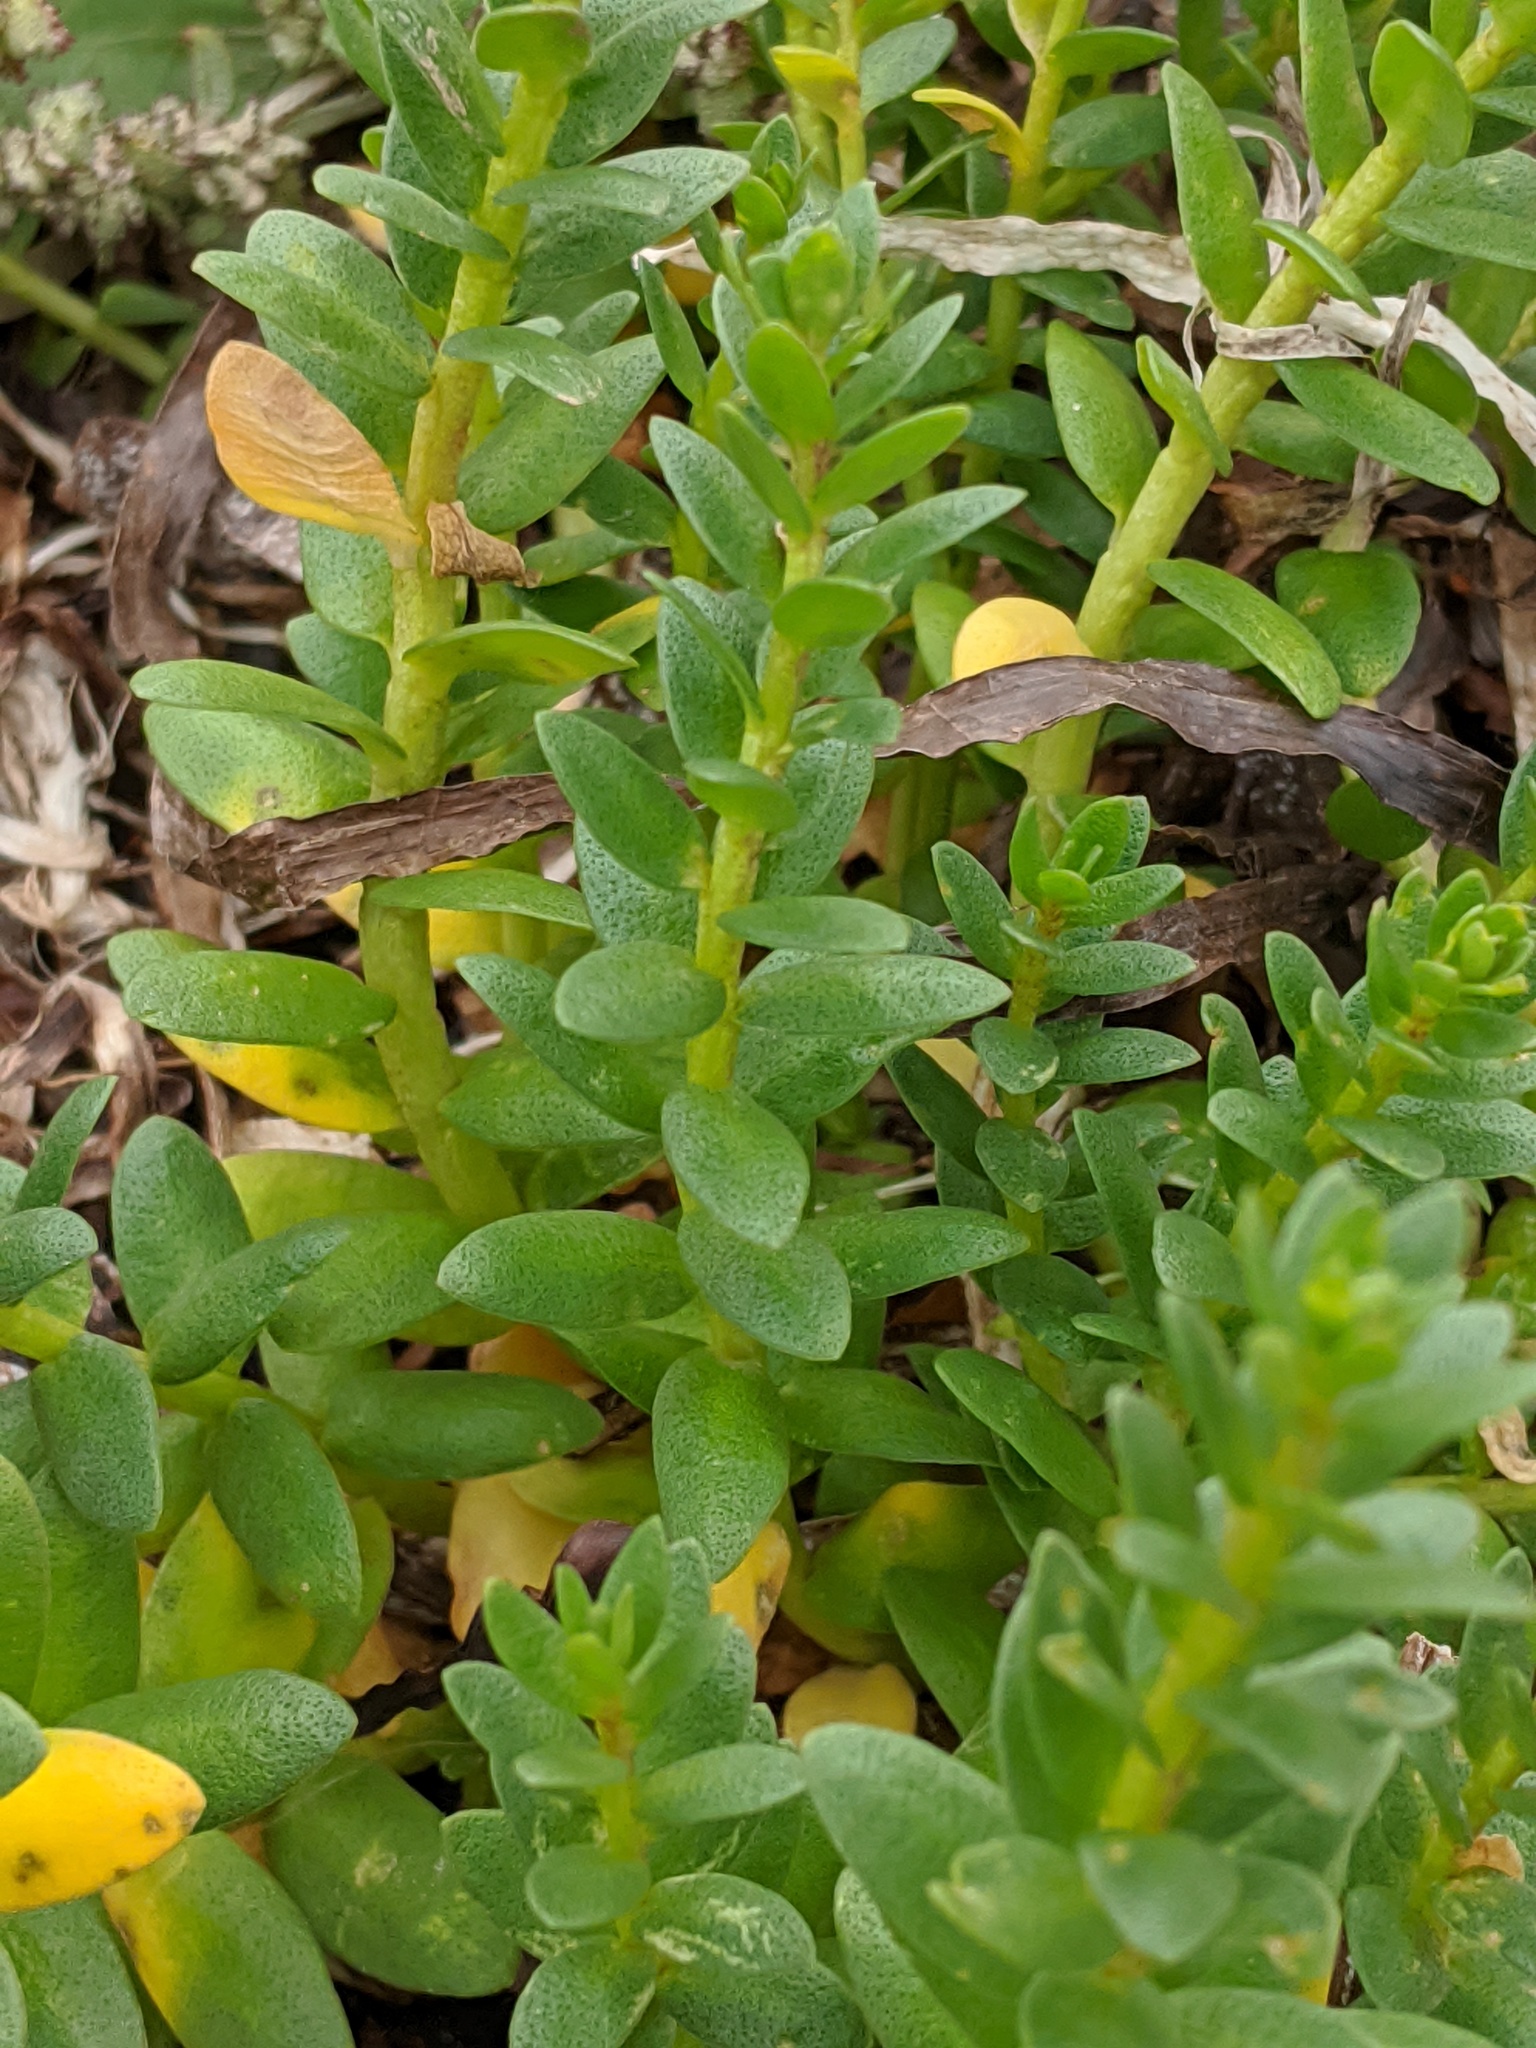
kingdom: Plantae
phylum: Tracheophyta
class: Magnoliopsida
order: Ericales
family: Primulaceae
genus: Lysimachia
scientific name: Lysimachia maritima
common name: Sea milkwort
